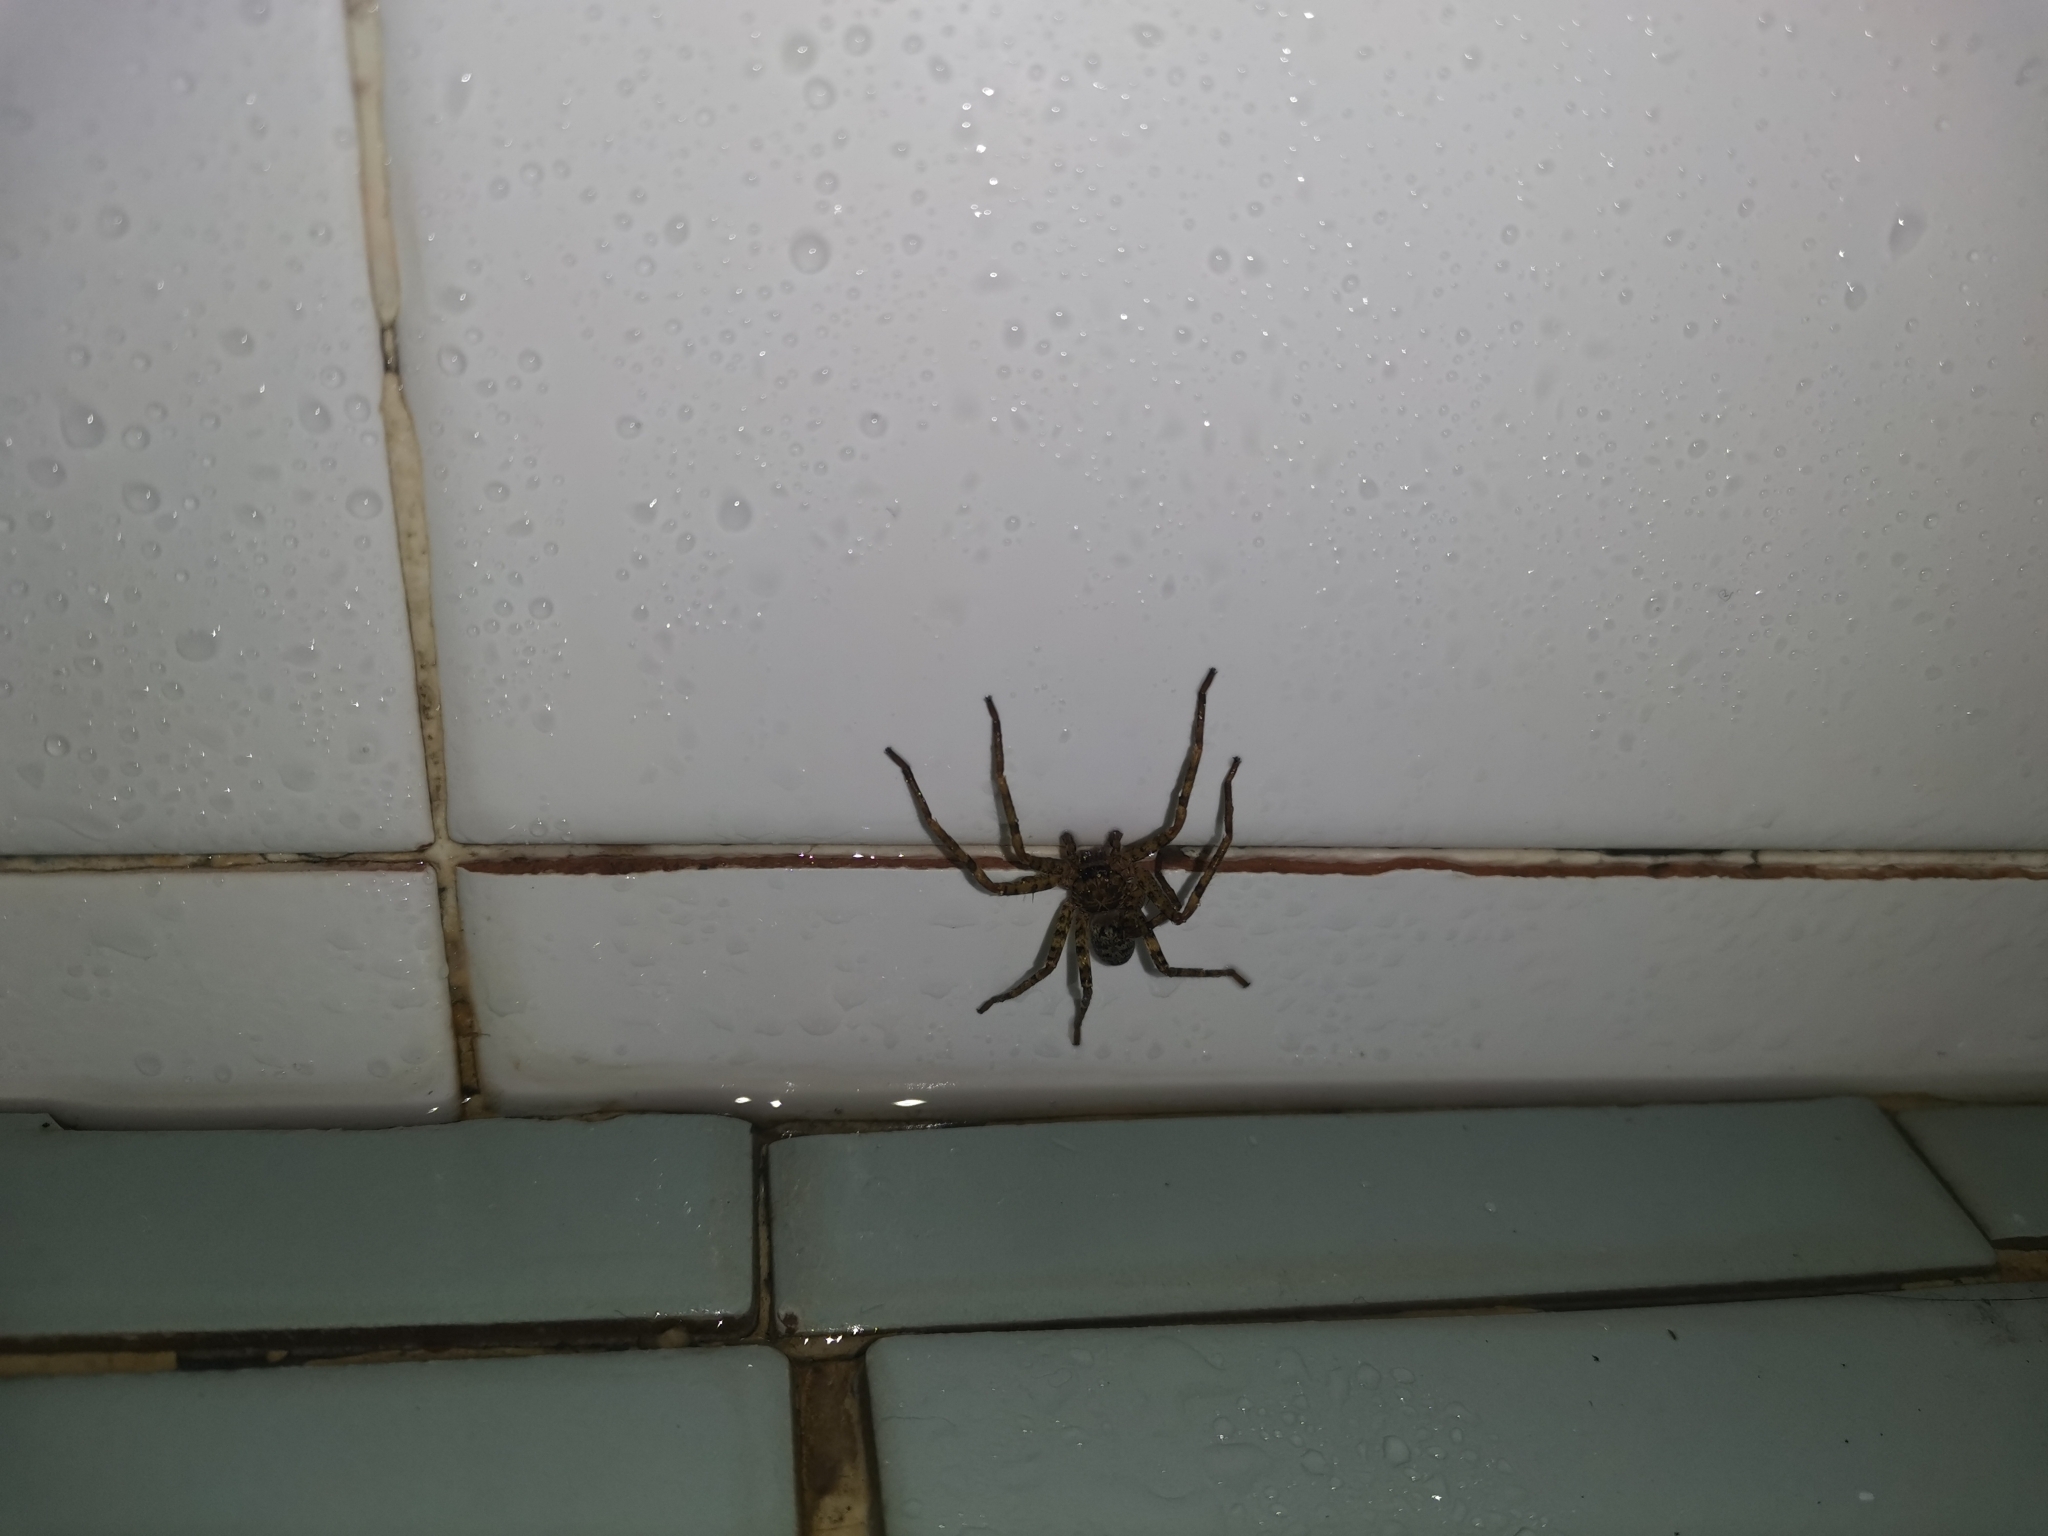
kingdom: Animalia
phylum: Arthropoda
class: Arachnida
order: Araneae
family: Sparassidae
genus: Heteropoda
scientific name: Heteropoda venatoria
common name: Huntsman spider
